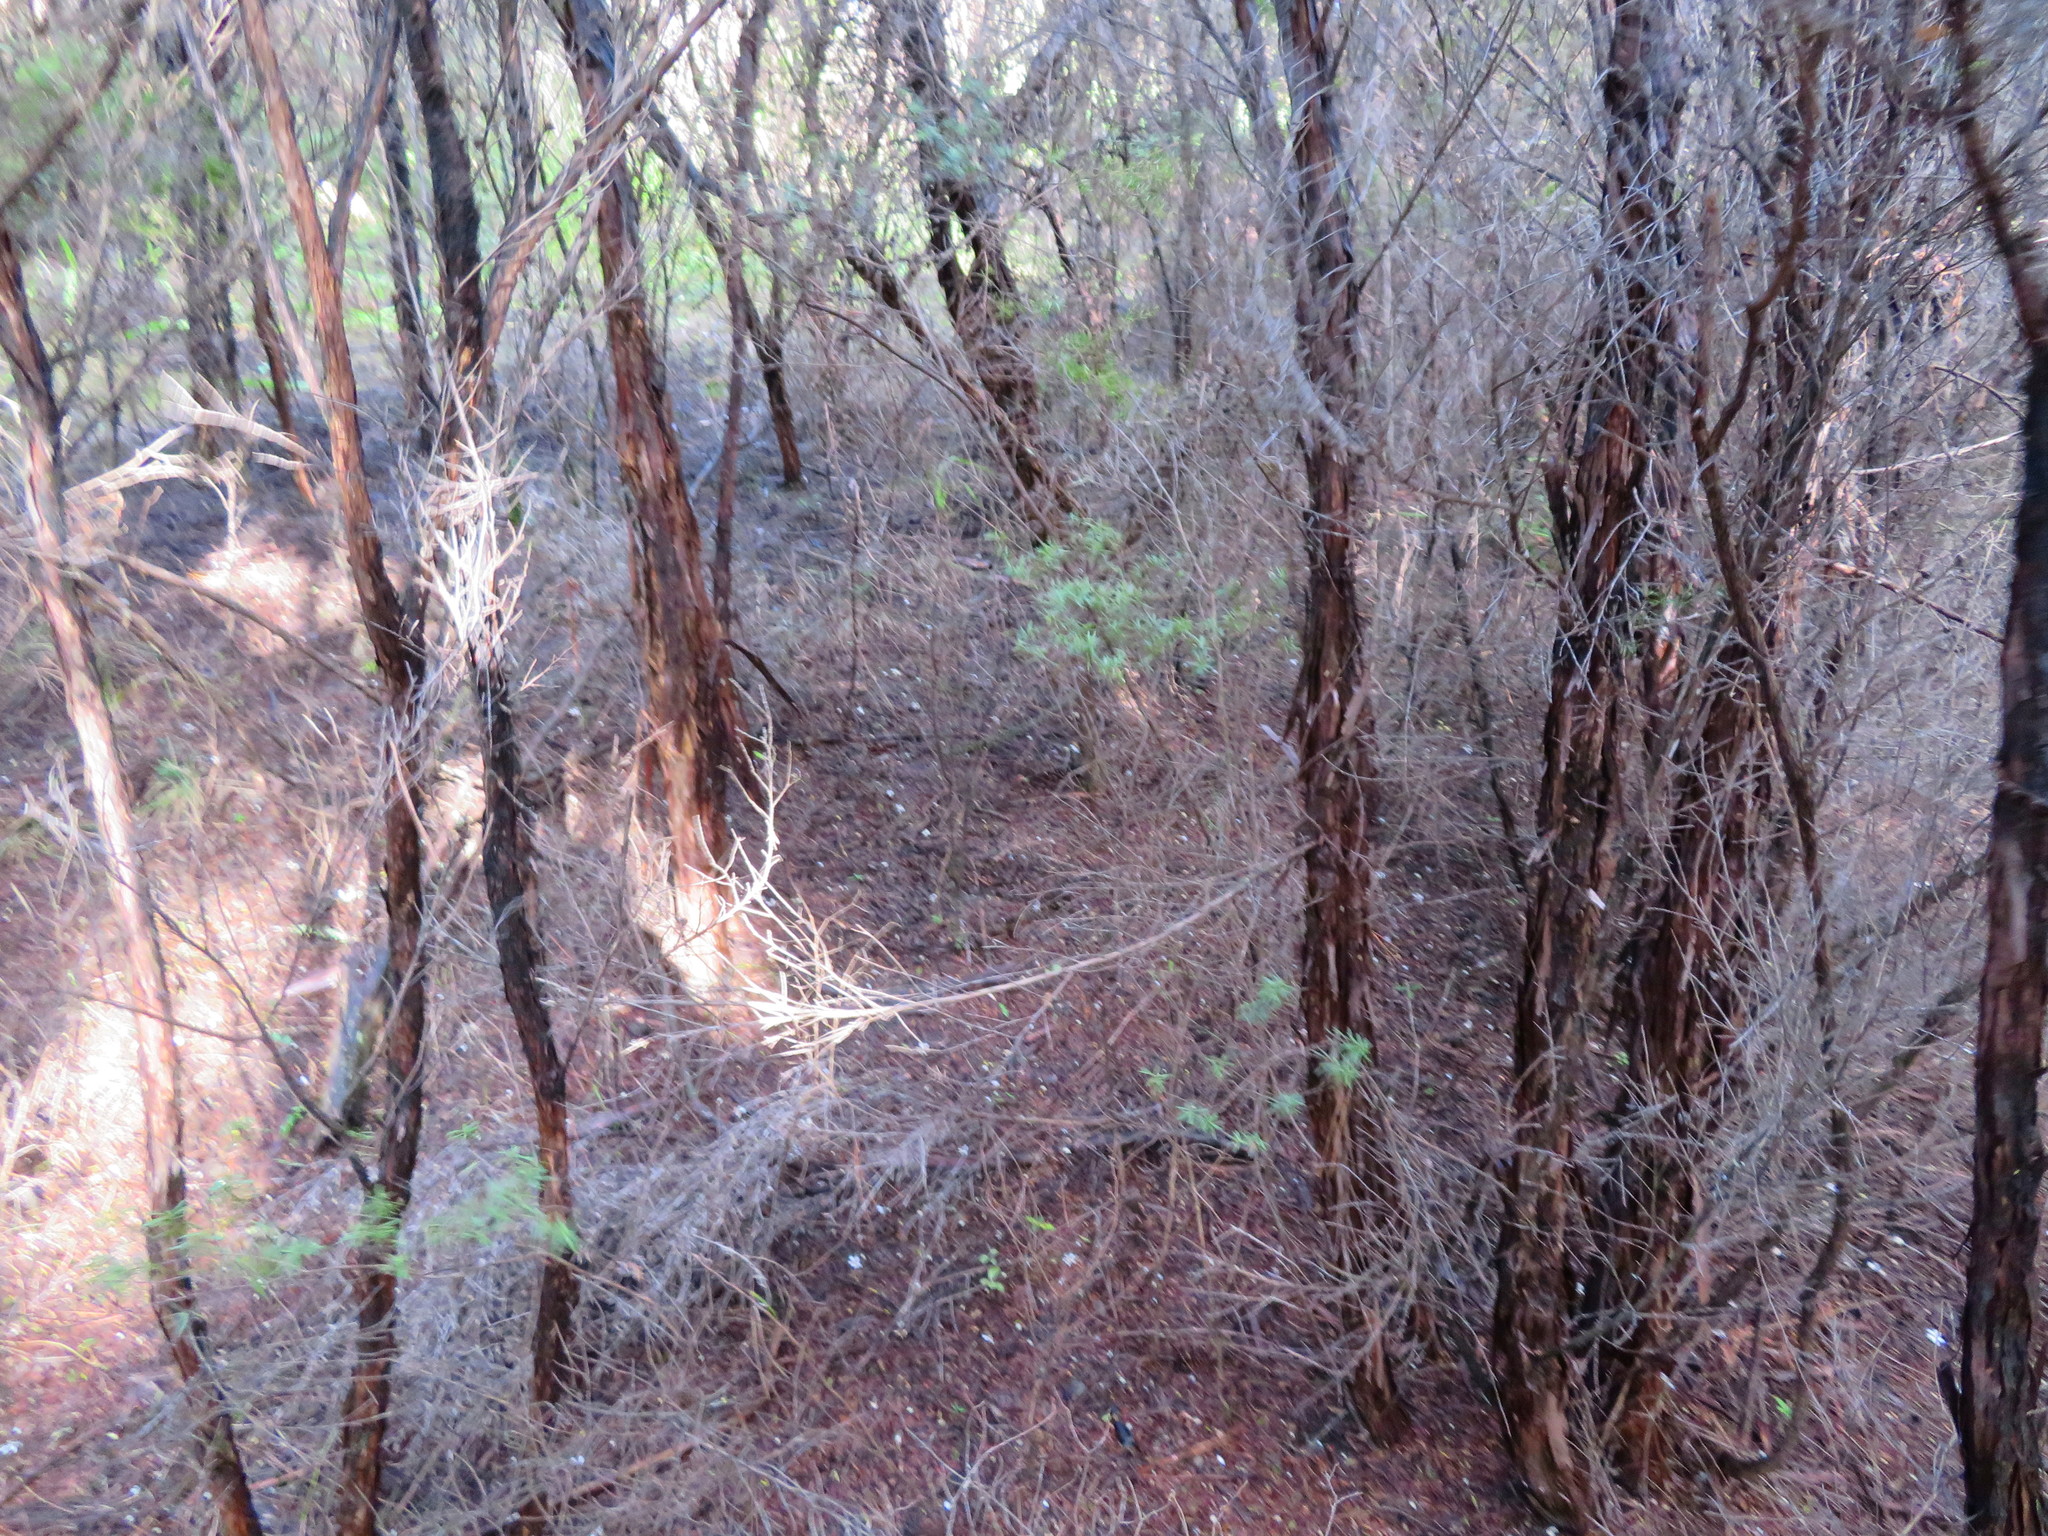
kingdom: Plantae
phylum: Tracheophyta
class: Magnoliopsida
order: Myrtales
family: Myrtaceae
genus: Leptospermum
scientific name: Leptospermum scoparium
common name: Broom tea-tree
